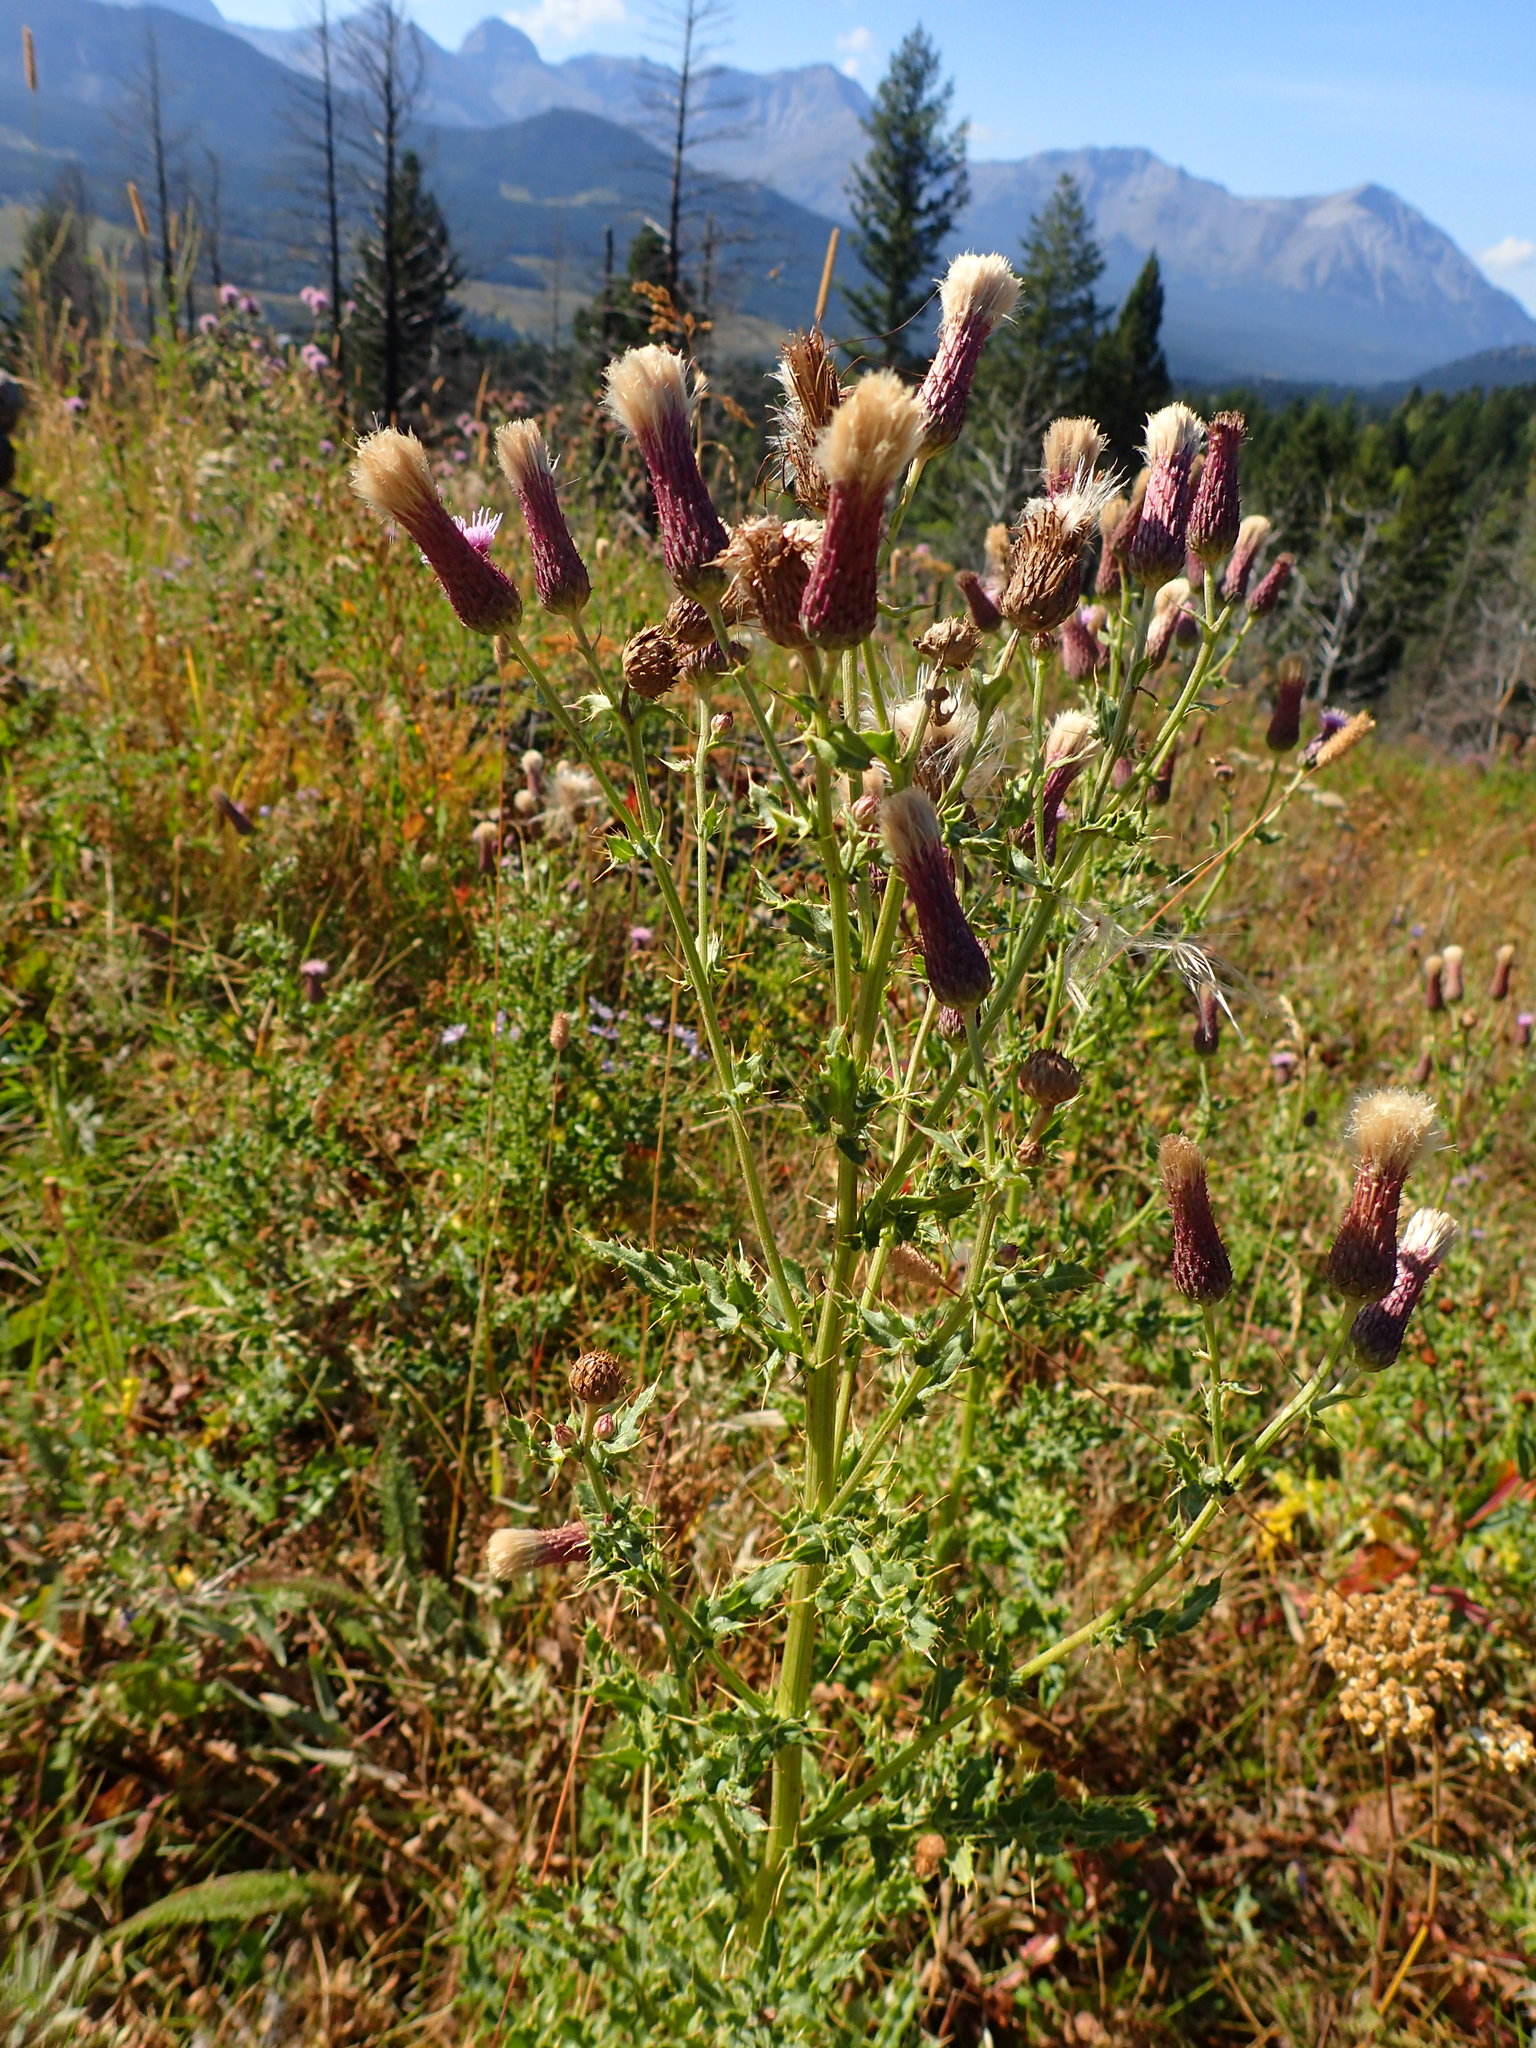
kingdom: Plantae
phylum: Tracheophyta
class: Magnoliopsida
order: Asterales
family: Asteraceae
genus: Cirsium
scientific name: Cirsium arvense
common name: Creeping thistle
